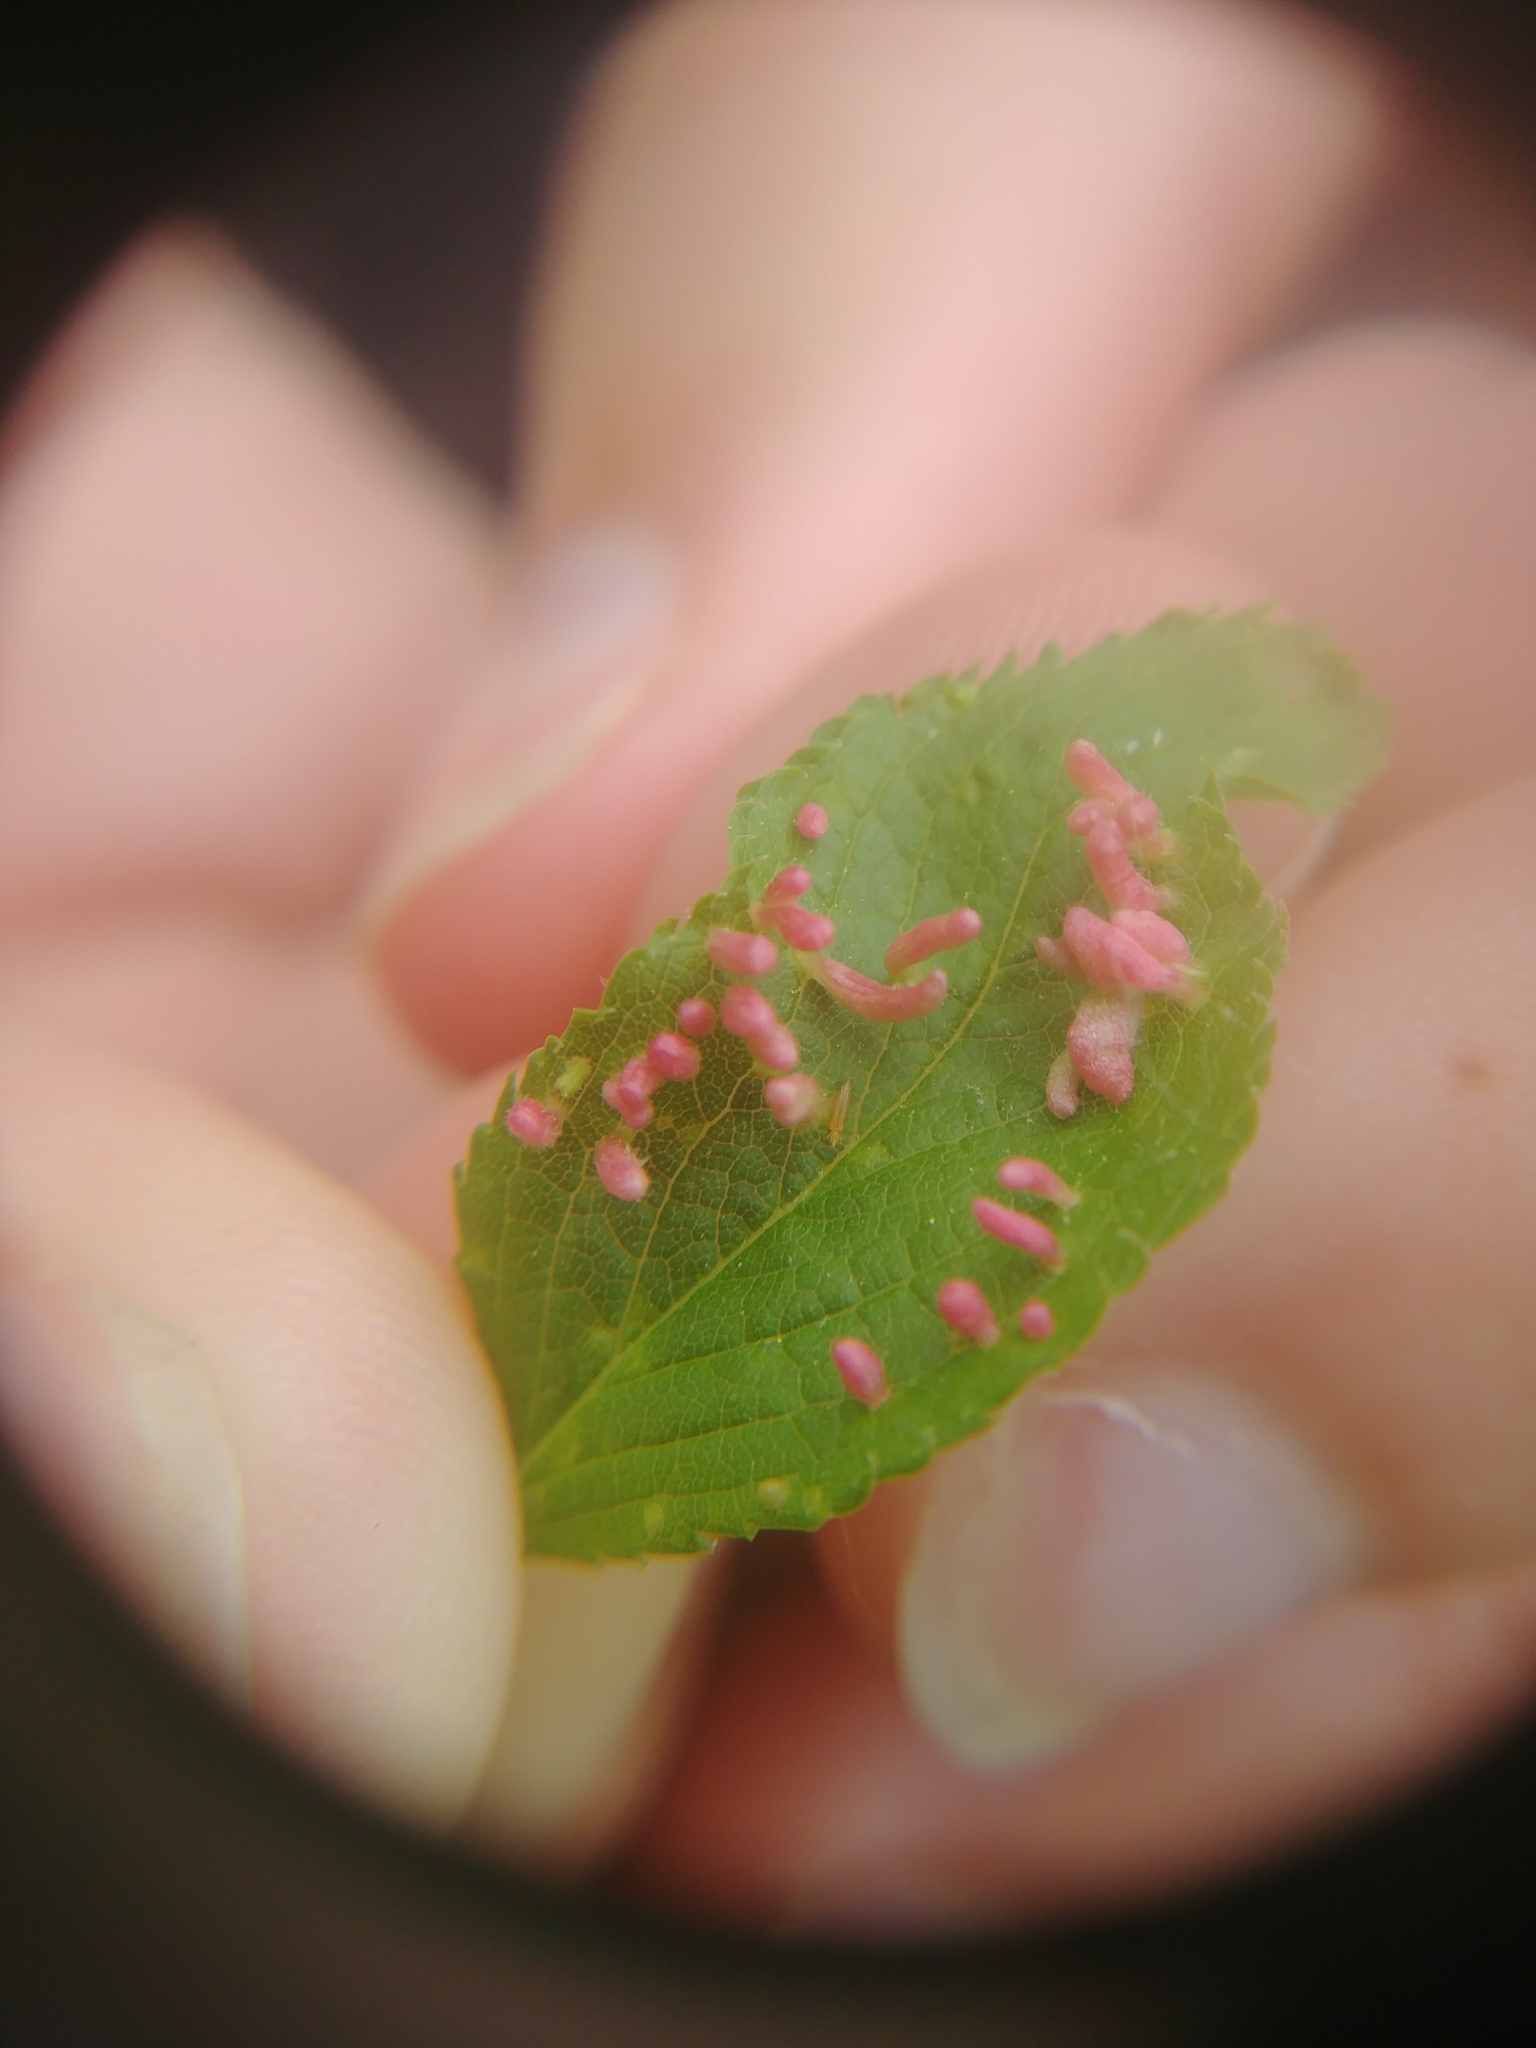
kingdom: Animalia
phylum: Arthropoda
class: Arachnida
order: Trombidiformes
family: Eriophyidae
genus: Eriophyes
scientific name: Eriophyes emarginatae
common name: Plum leaf gall mite
